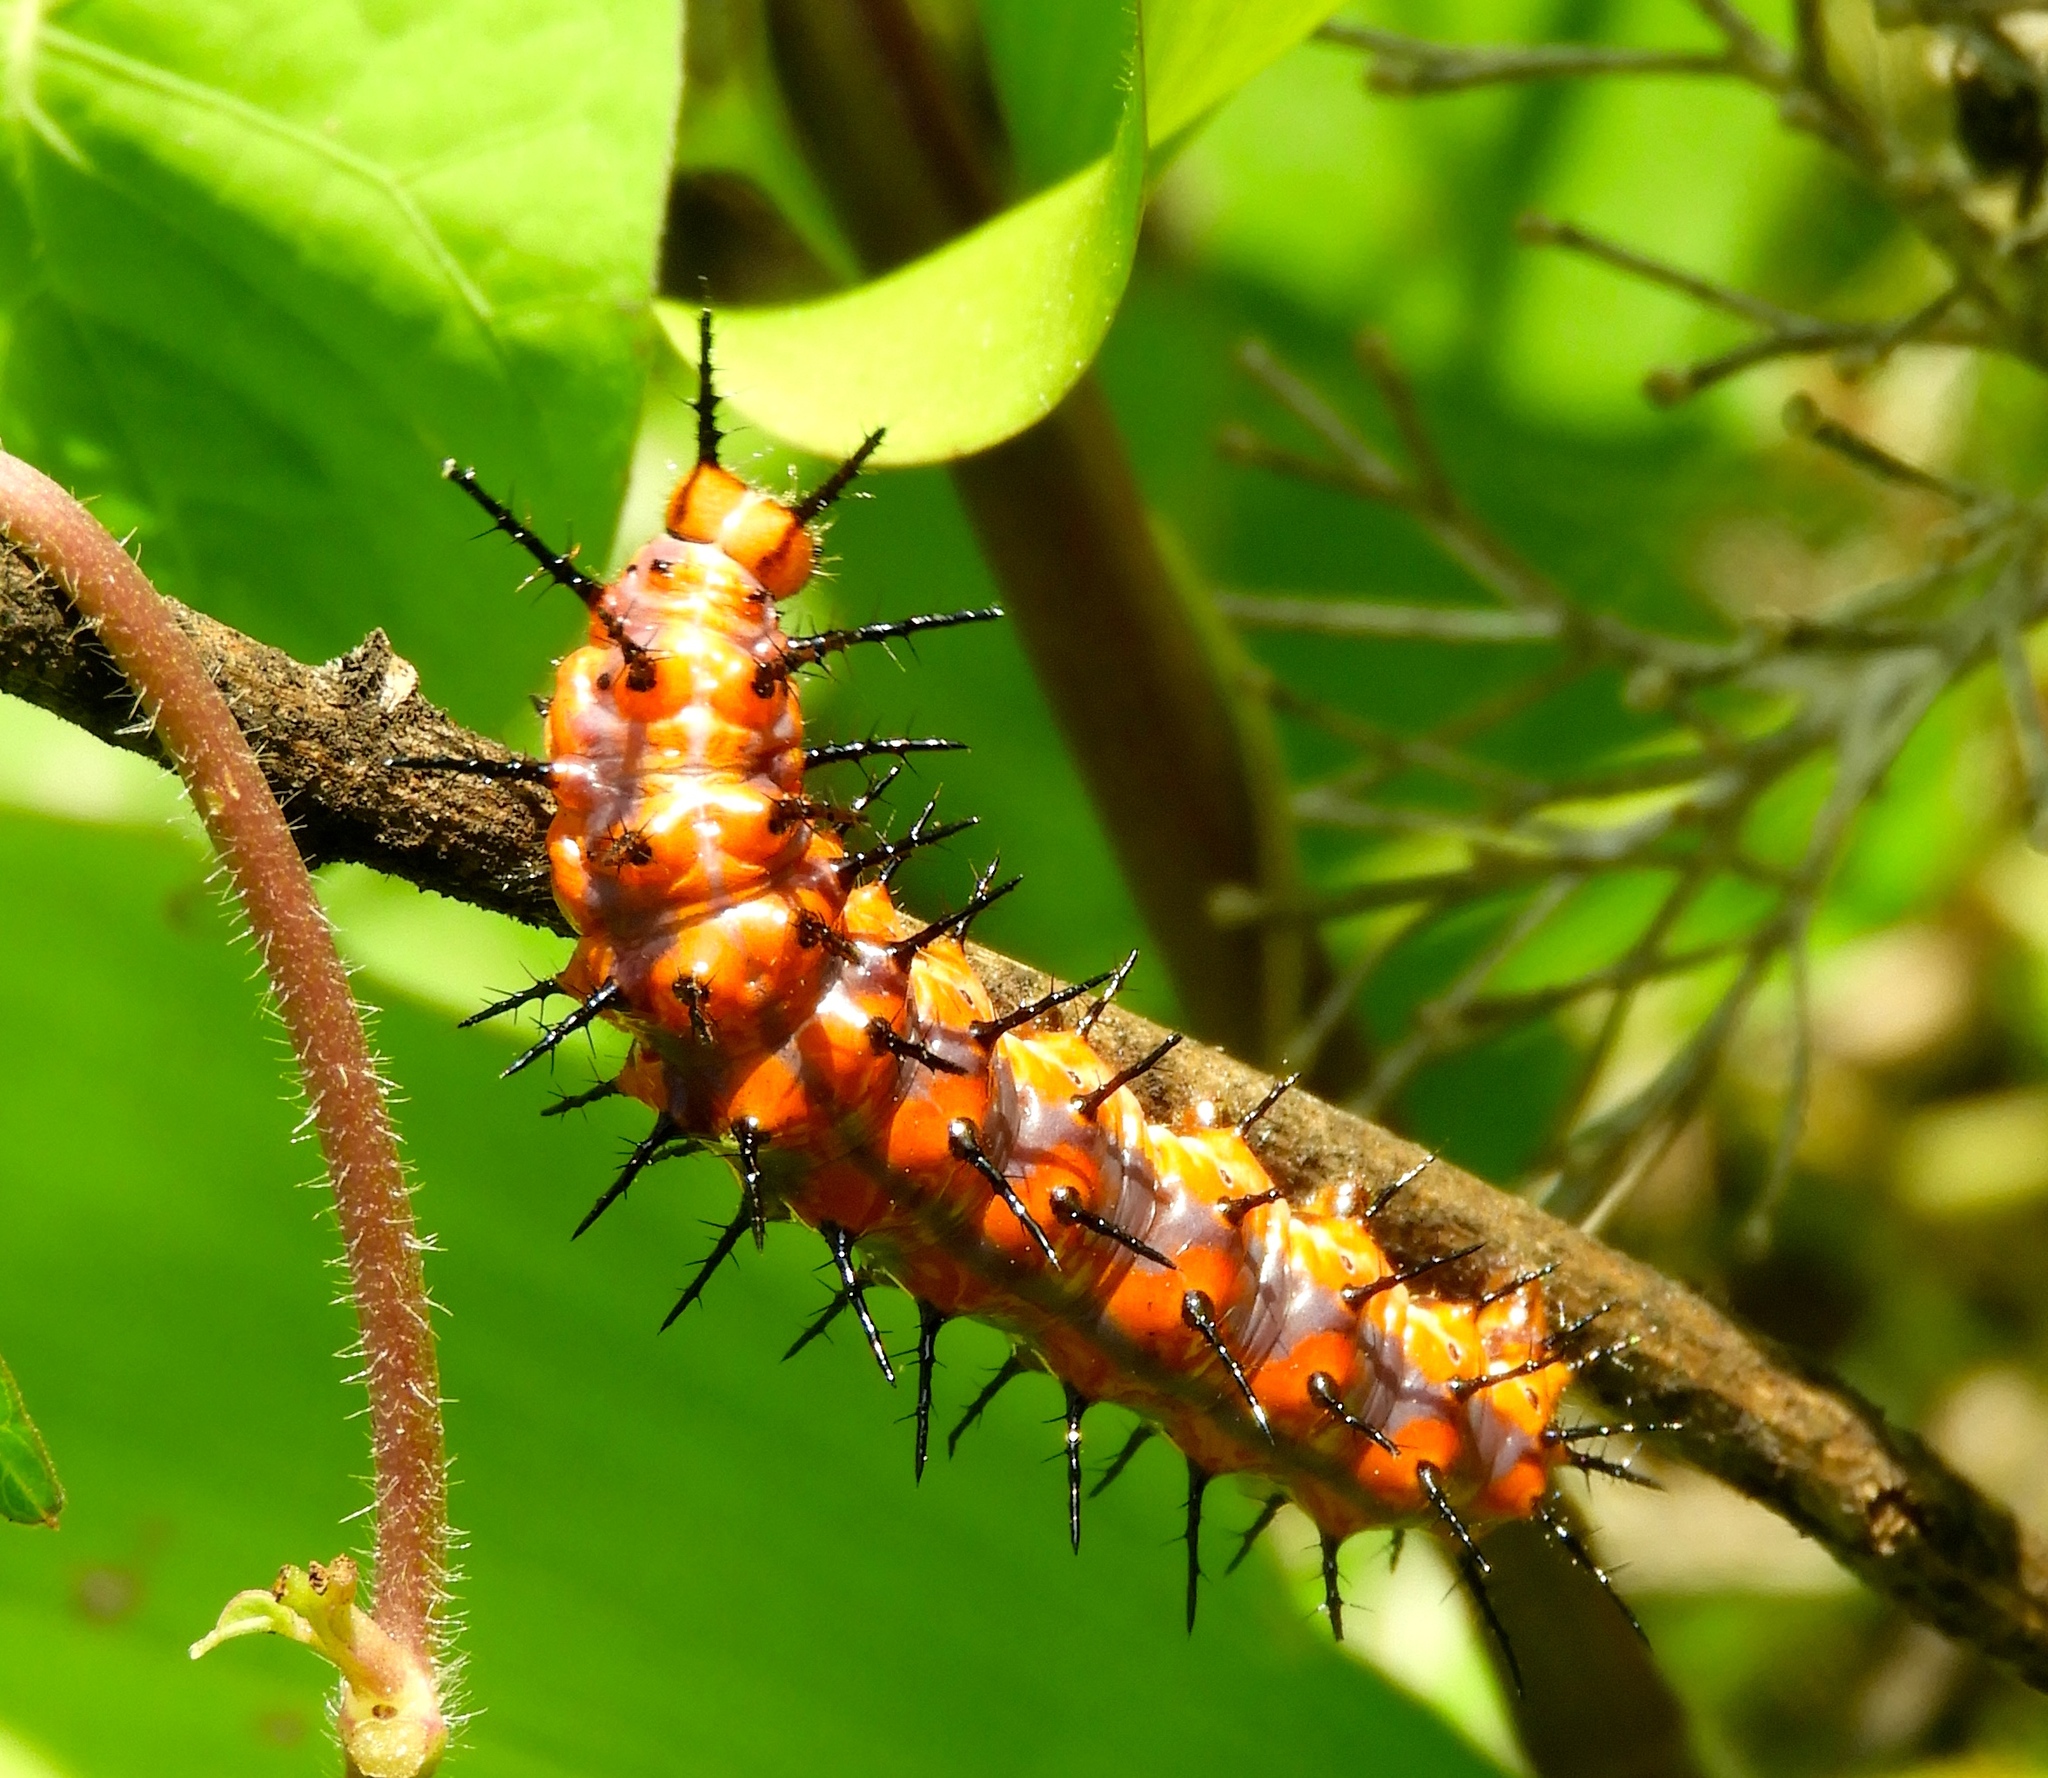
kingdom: Animalia
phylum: Arthropoda
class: Insecta
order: Lepidoptera
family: Nymphalidae
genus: Dione
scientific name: Dione vanillae
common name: Gulf fritillary
